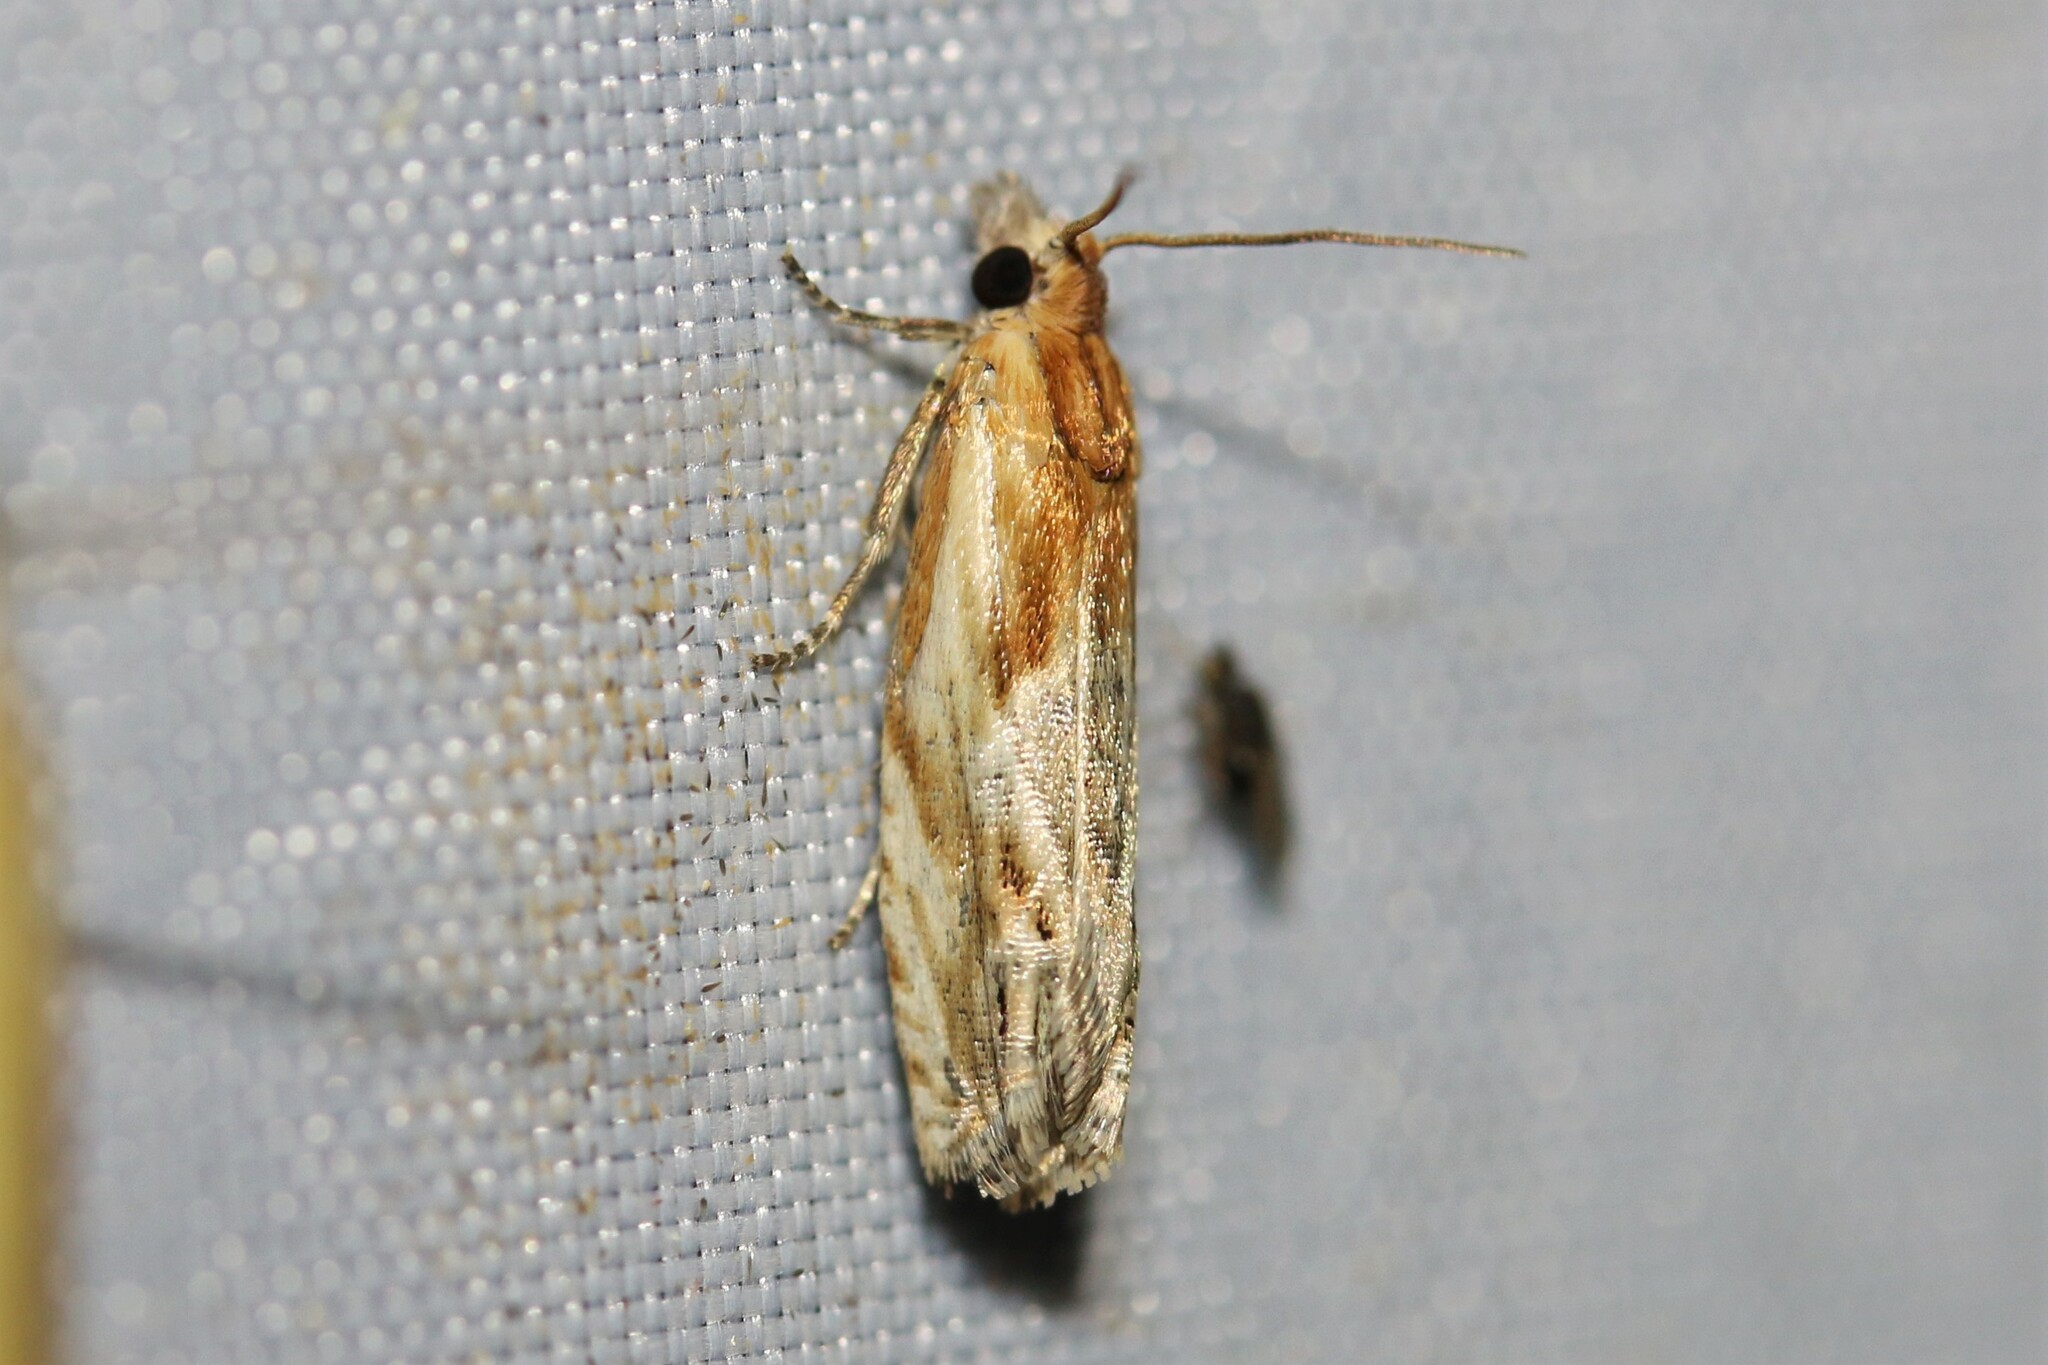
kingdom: Animalia
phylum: Arthropoda
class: Insecta
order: Lepidoptera
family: Tortricidae
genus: Eucosma
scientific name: Eucosma cana
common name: Hoary belle
